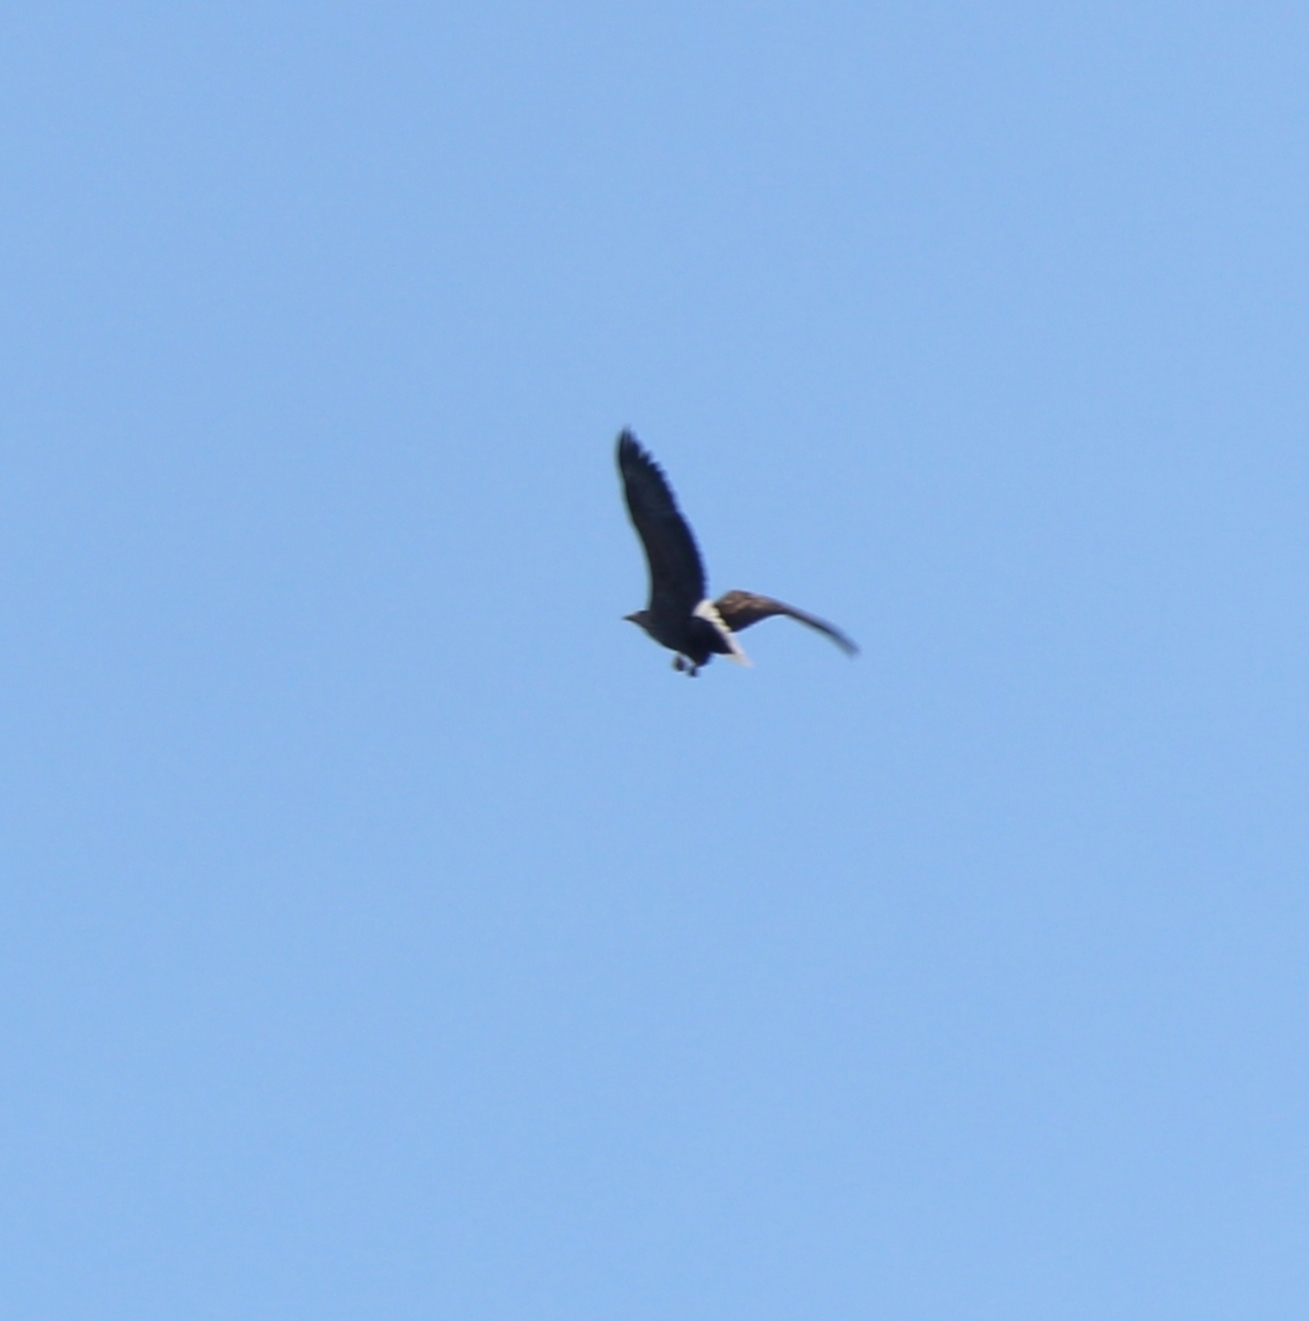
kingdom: Animalia
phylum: Chordata
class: Aves
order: Accipitriformes
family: Accipitridae
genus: Haliaeetus
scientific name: Haliaeetus albicilla
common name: White-tailed eagle
